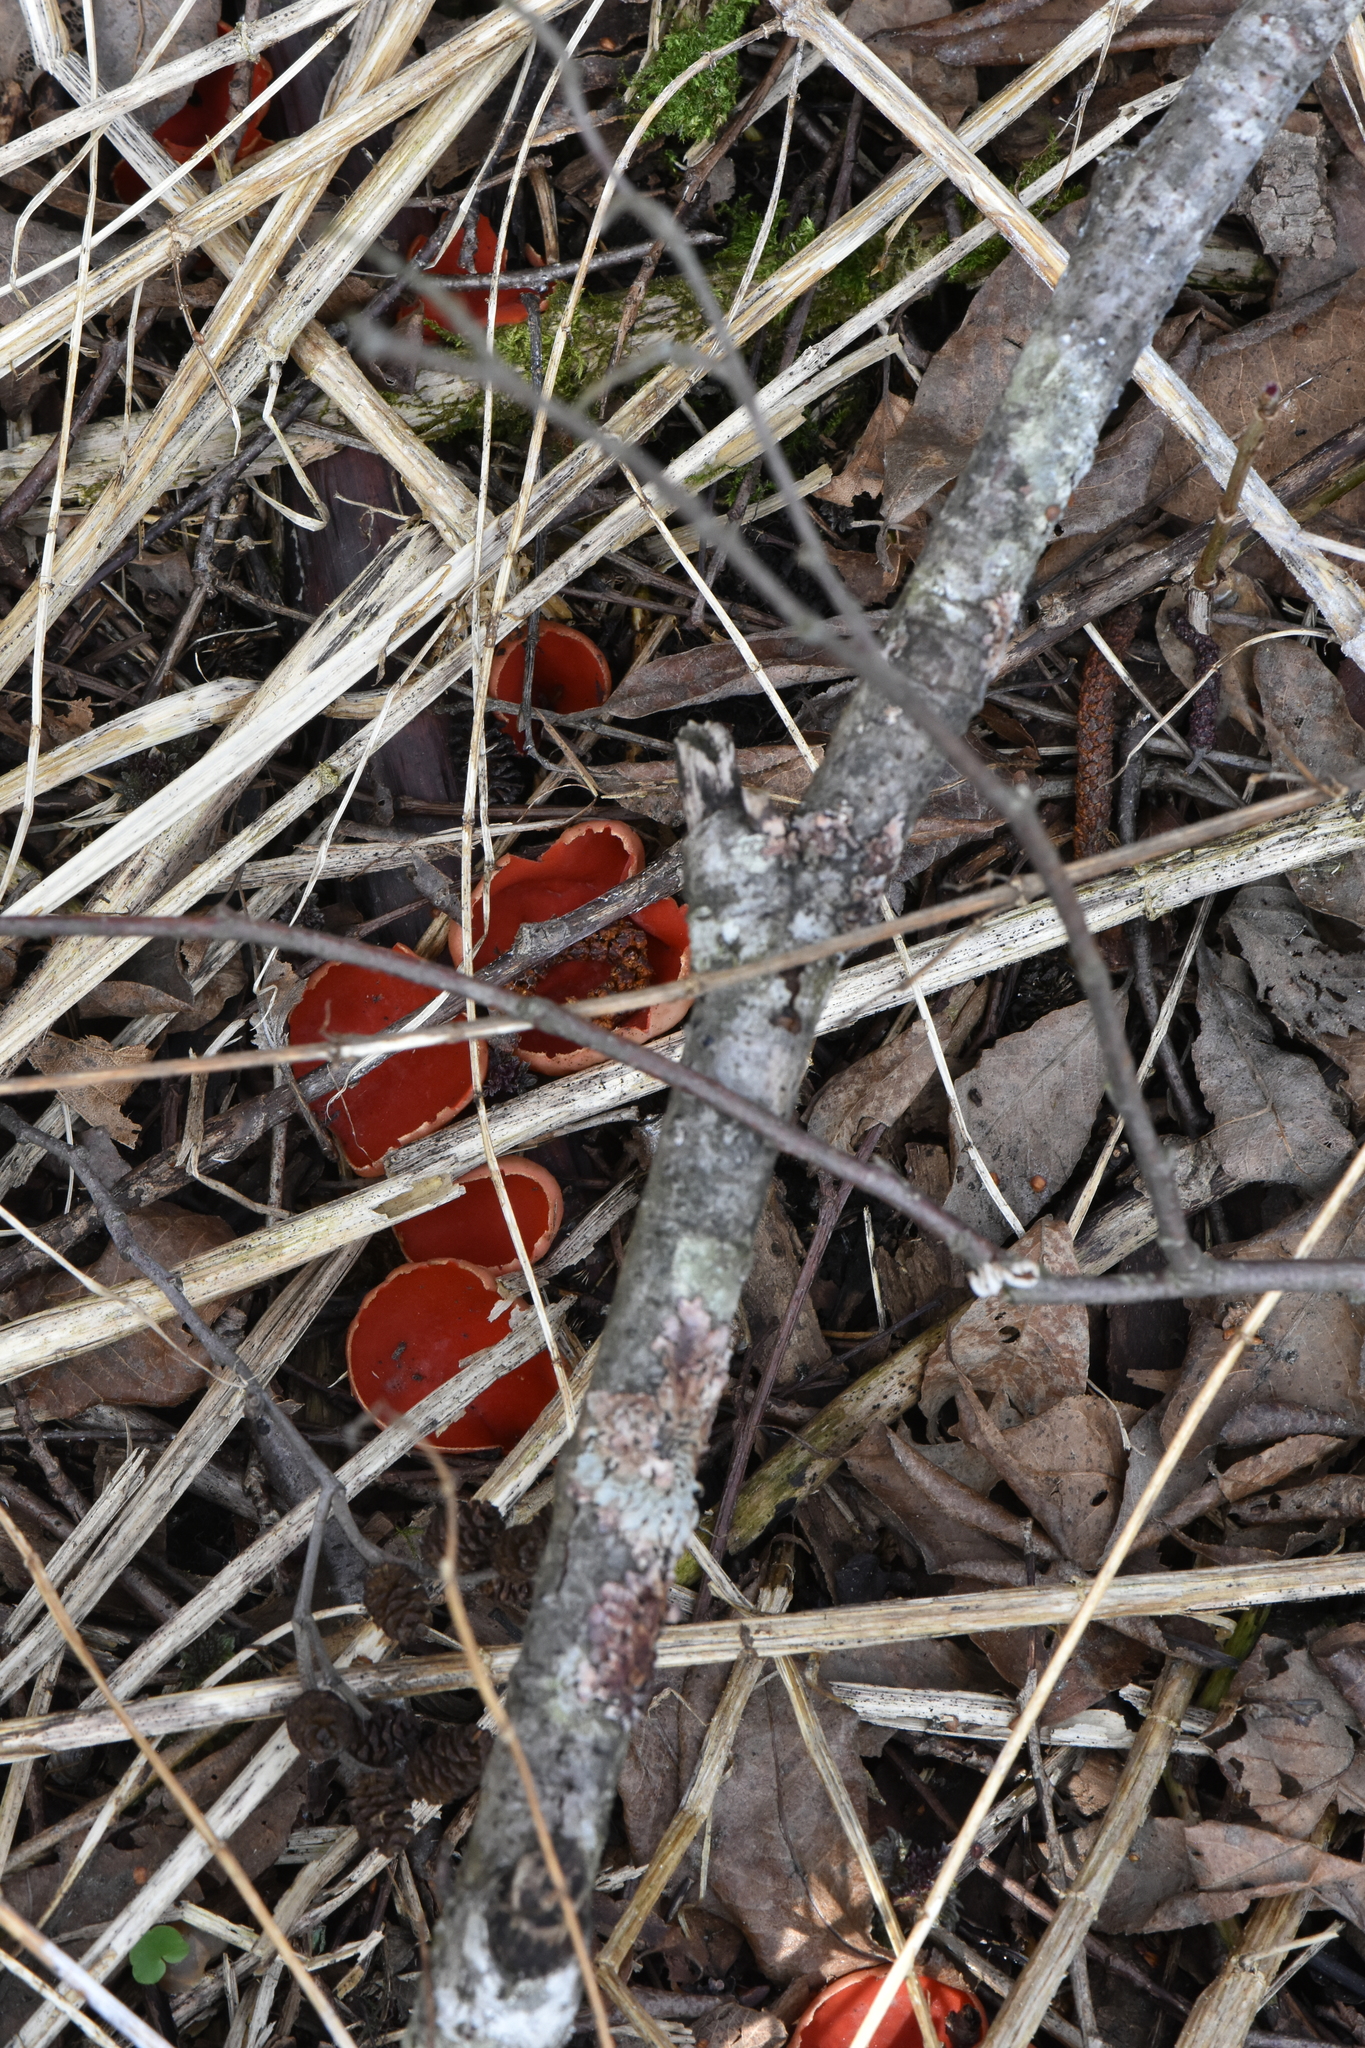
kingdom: Fungi
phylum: Ascomycota
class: Pezizomycetes
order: Pezizales
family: Sarcoscyphaceae
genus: Sarcoscypha
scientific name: Sarcoscypha austriaca
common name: Scarlet elfcup
